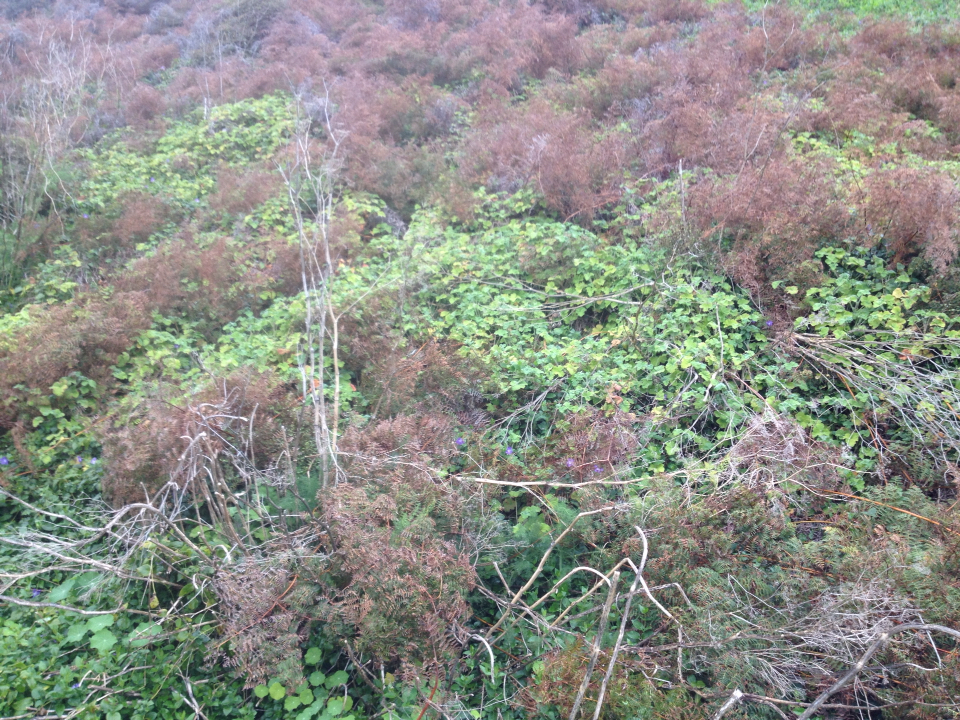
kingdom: Plantae
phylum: Tracheophyta
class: Magnoliopsida
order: Geraniales
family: Geraniaceae
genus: Pelargonium
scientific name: Pelargonium tomentosum
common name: Peppermint-scented geranium
